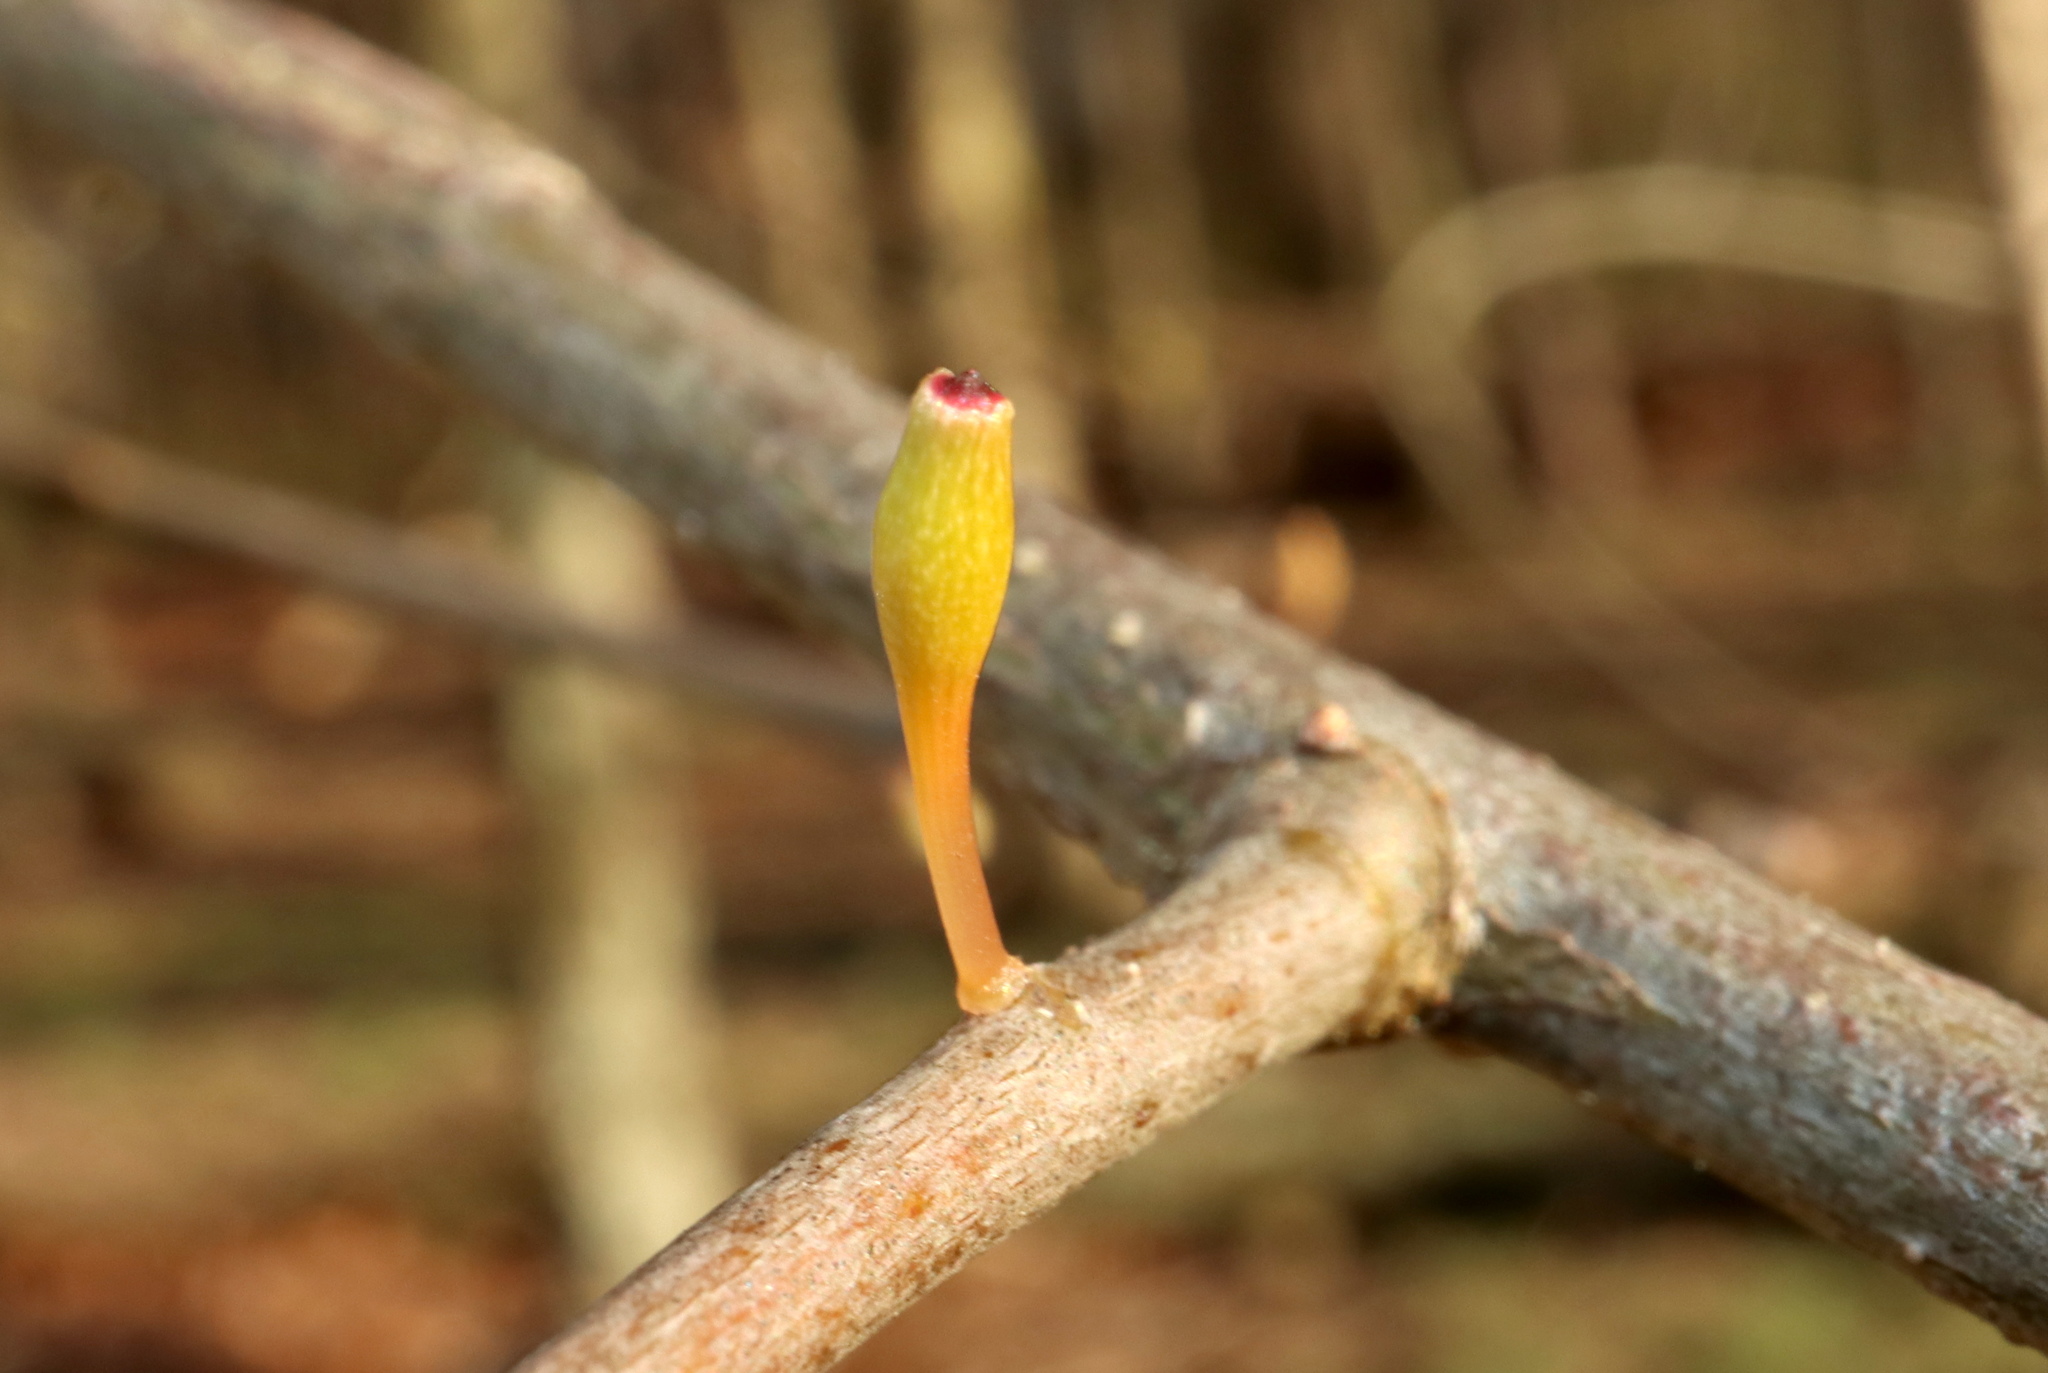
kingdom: Animalia
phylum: Arthropoda
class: Insecta
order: Hymenoptera
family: Cynipidae
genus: Callirhytis
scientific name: Callirhytis
